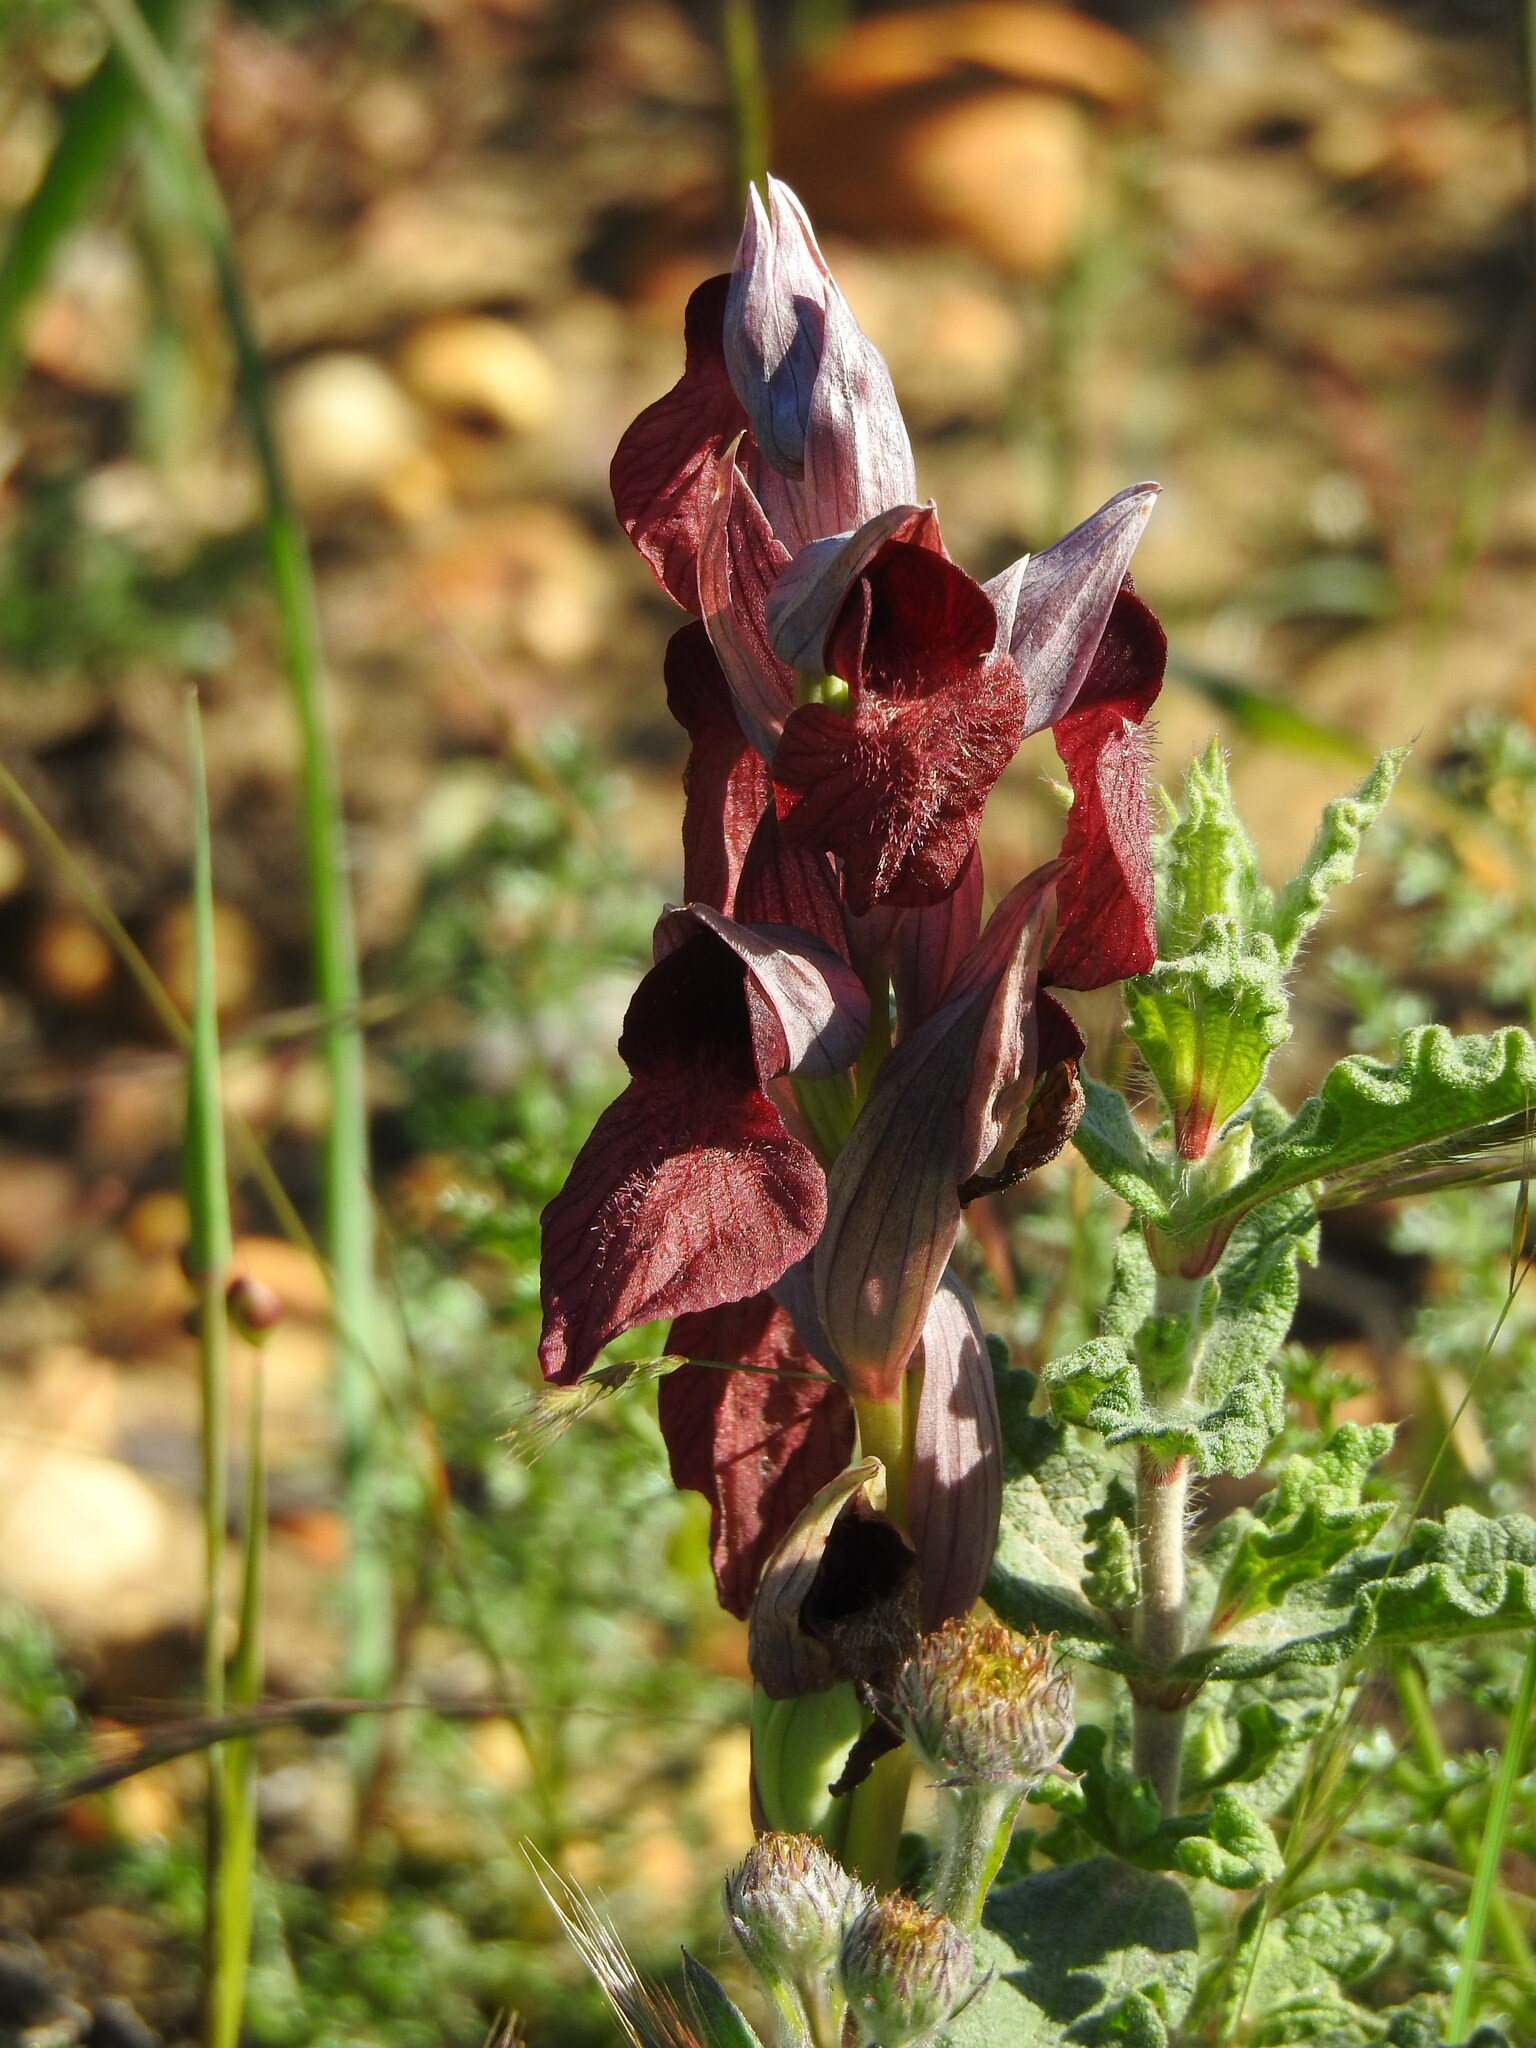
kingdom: Plantae
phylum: Tracheophyta
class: Liliopsida
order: Asparagales
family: Orchidaceae
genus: Serapias
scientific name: Serapias cordigera
